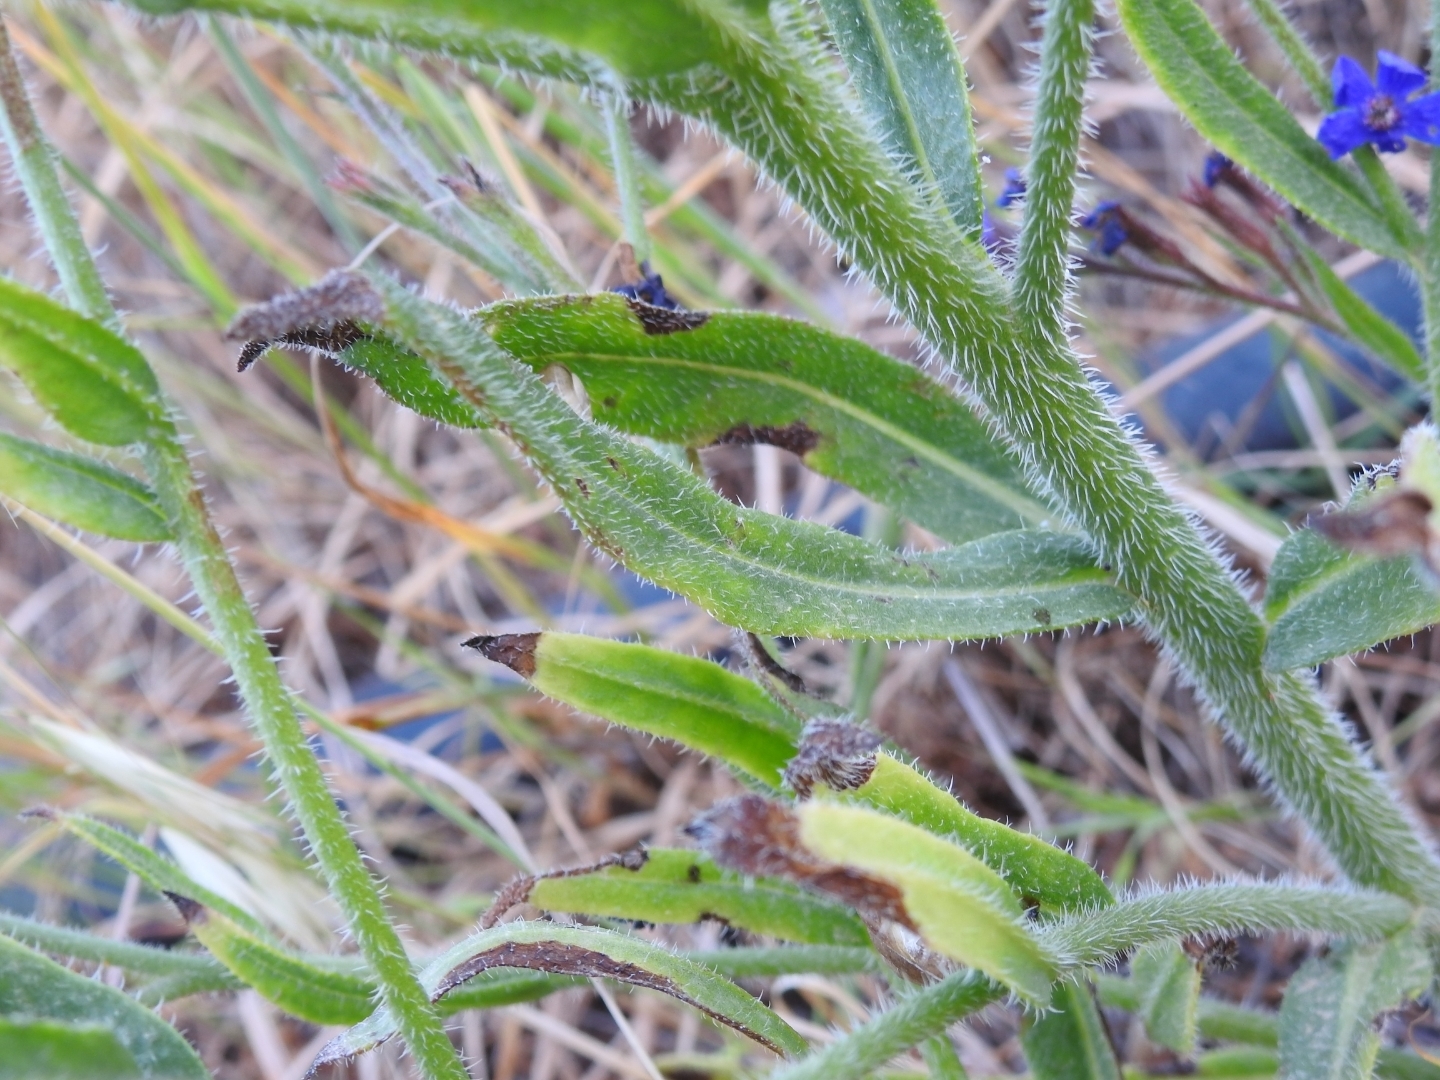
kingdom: Plantae
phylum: Tracheophyta
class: Magnoliopsida
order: Boraginales
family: Boraginaceae
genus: Anchusa
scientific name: Anchusa azurea
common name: Garden anchusa
